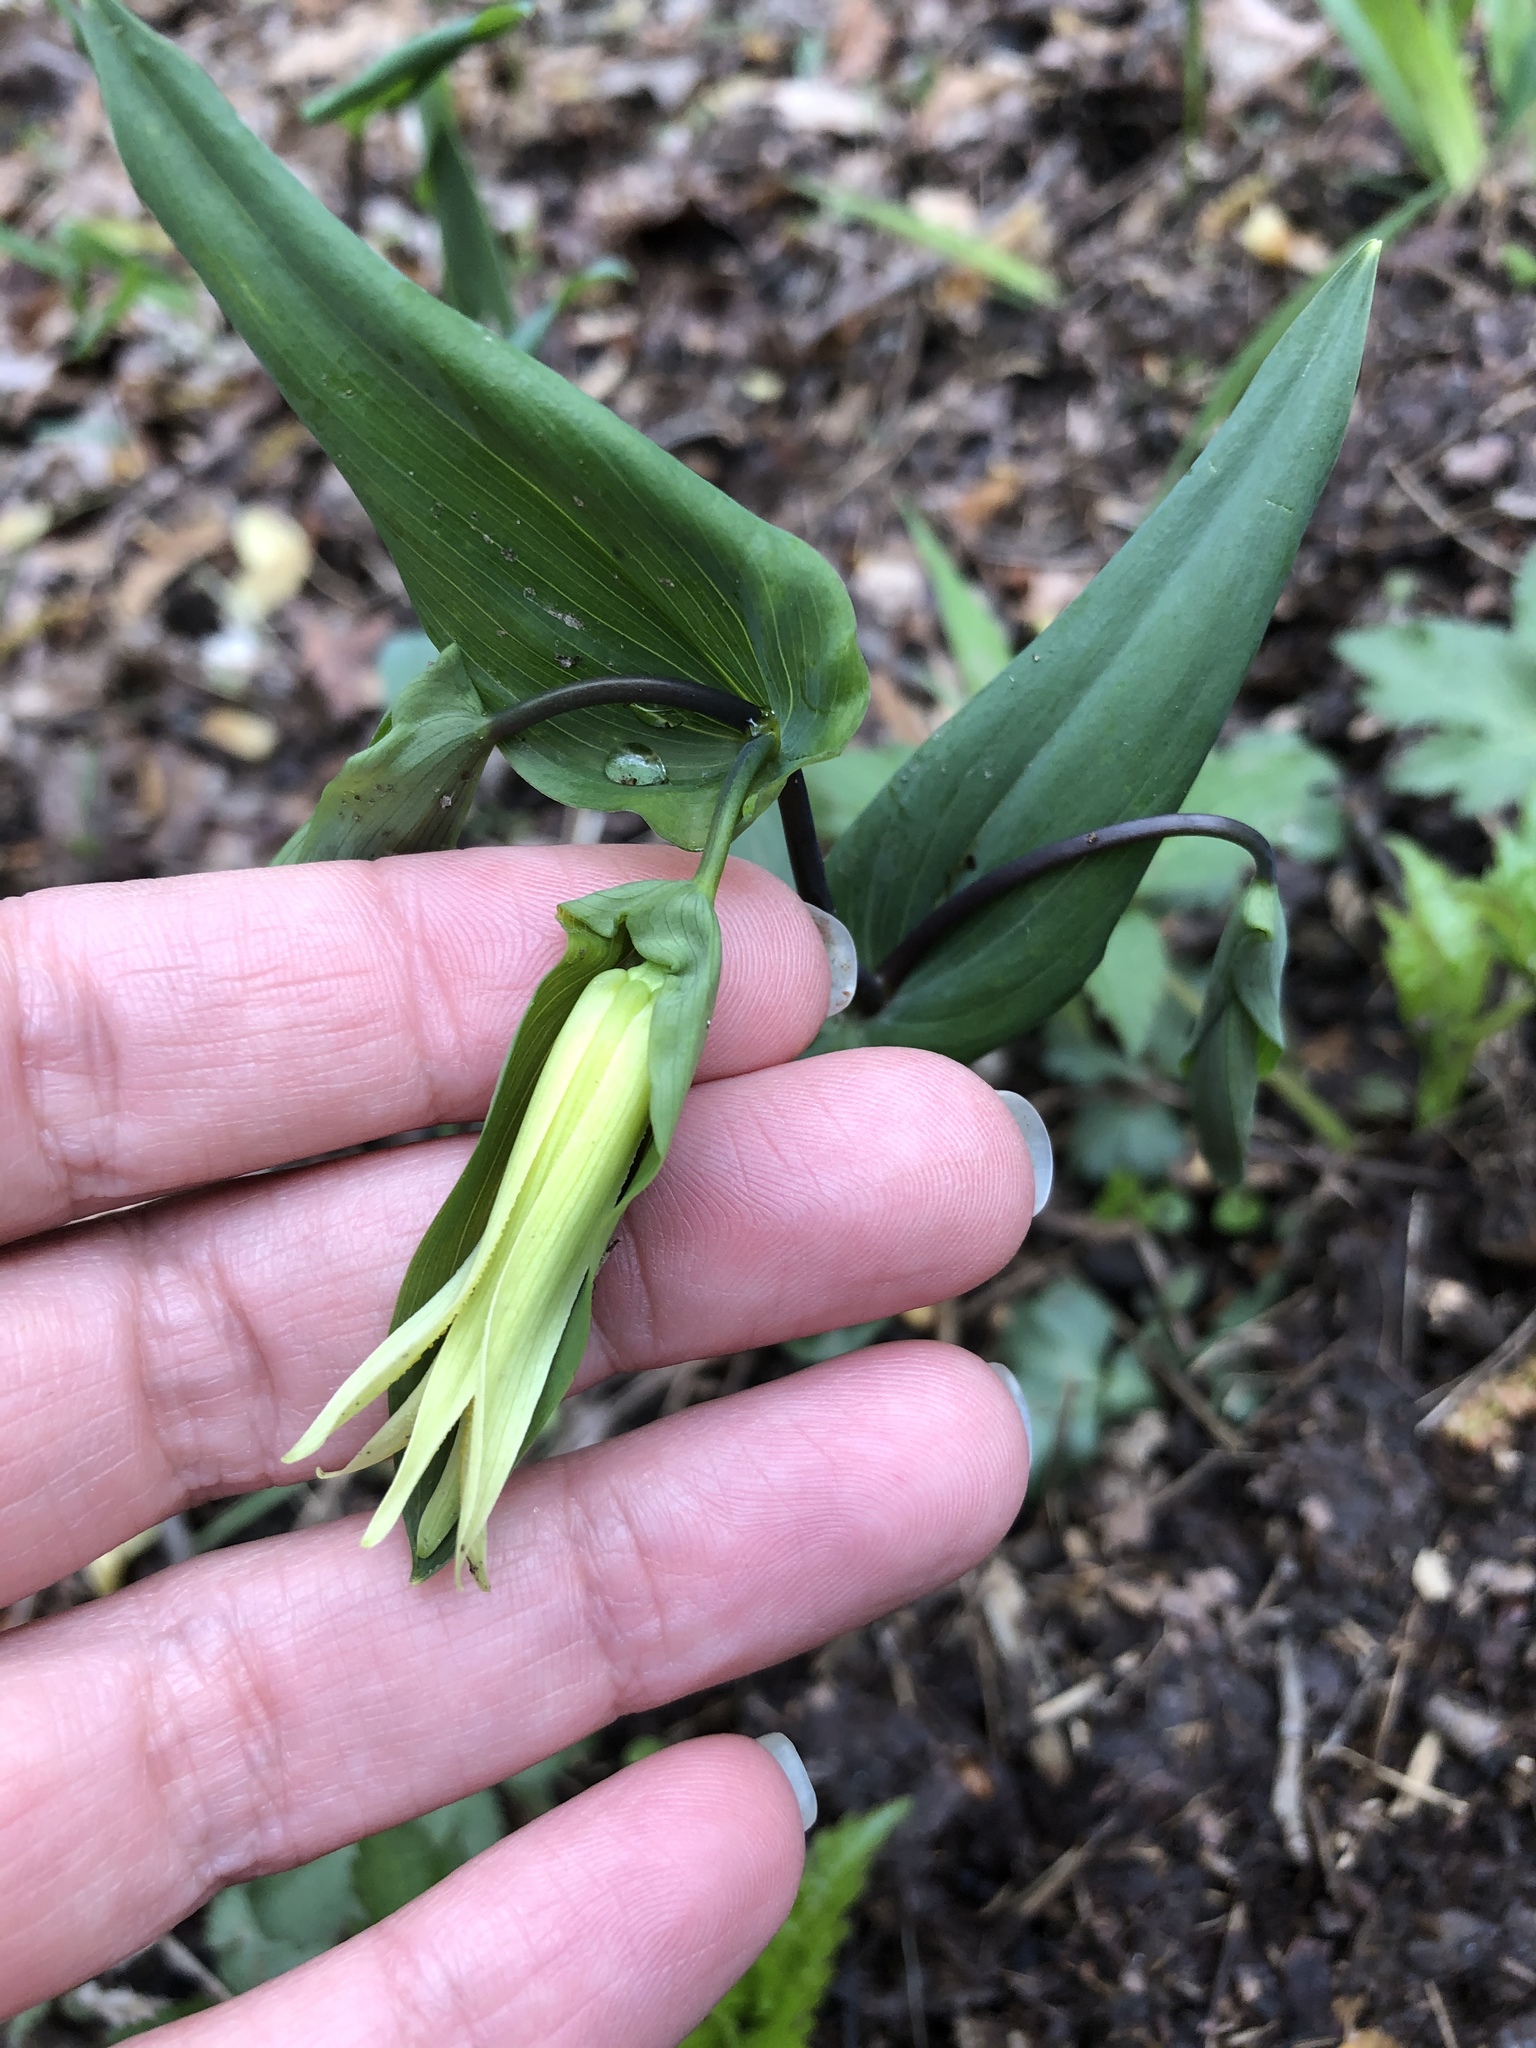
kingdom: Plantae
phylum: Tracheophyta
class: Liliopsida
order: Liliales
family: Colchicaceae
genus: Uvularia
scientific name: Uvularia perfoliata
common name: Perfoliate bellwort
